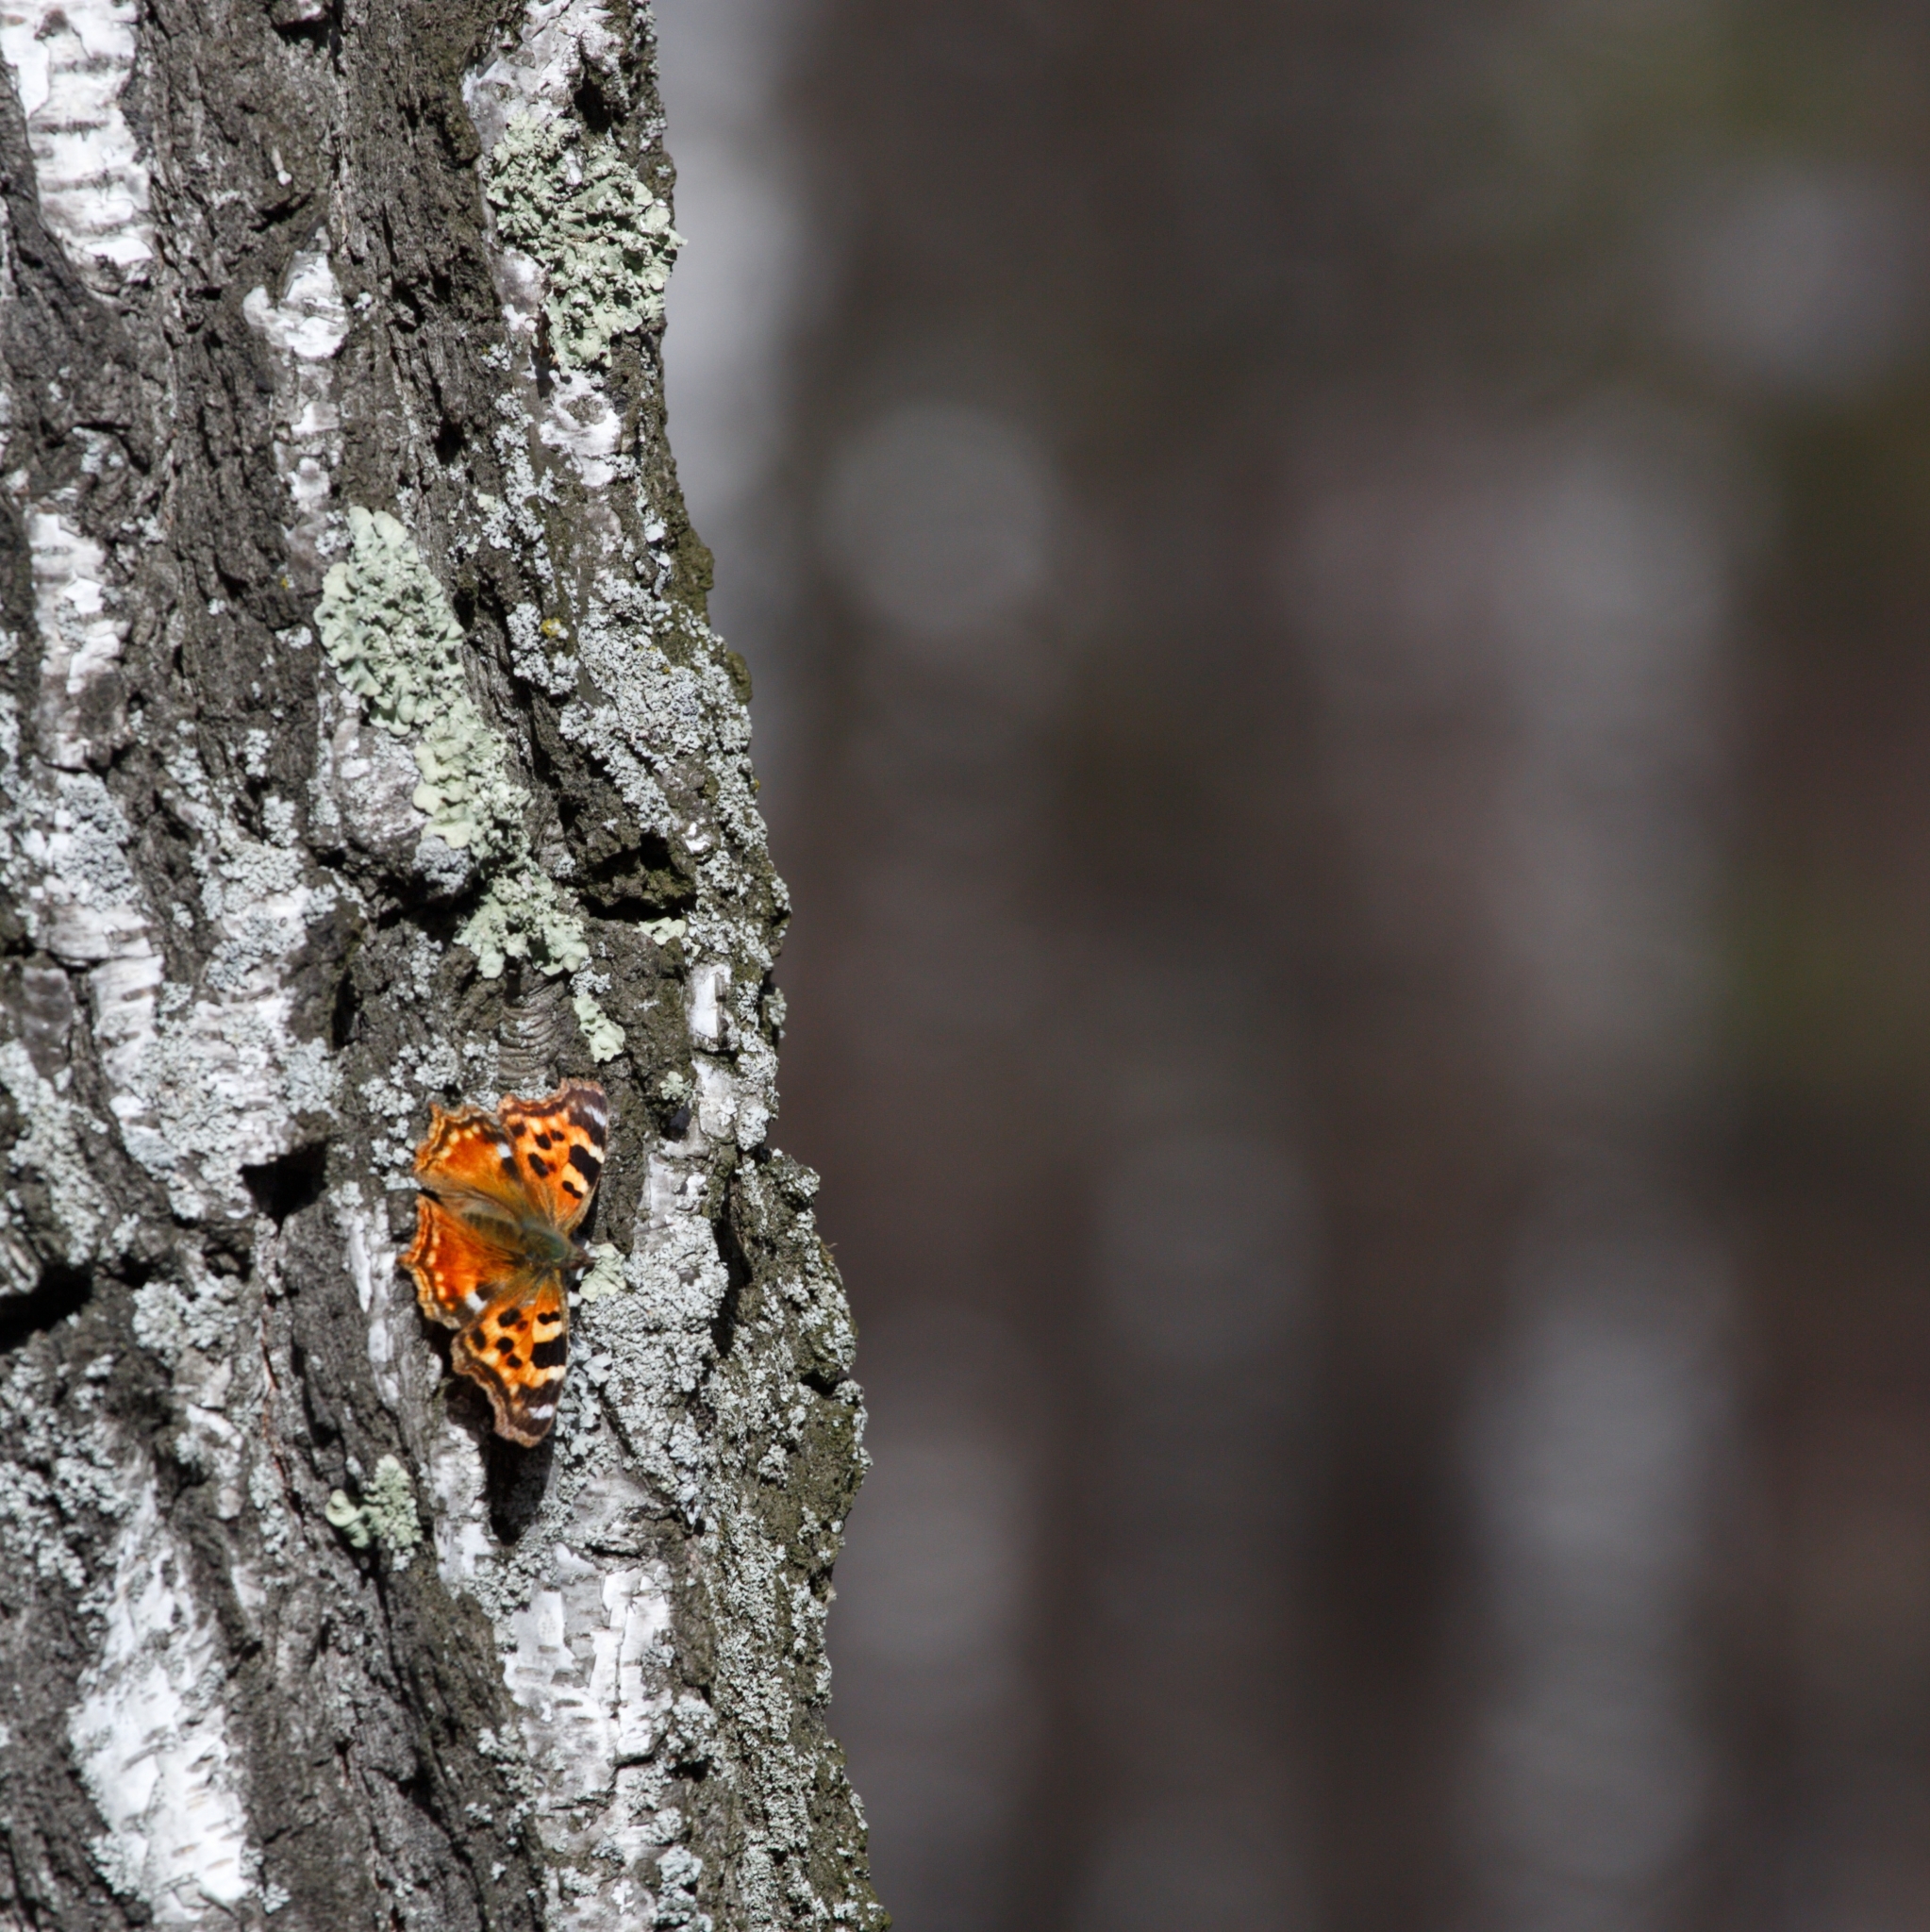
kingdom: Animalia
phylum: Arthropoda
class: Insecta
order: Lepidoptera
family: Nymphalidae
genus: Polygonia
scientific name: Polygonia vaualbum
